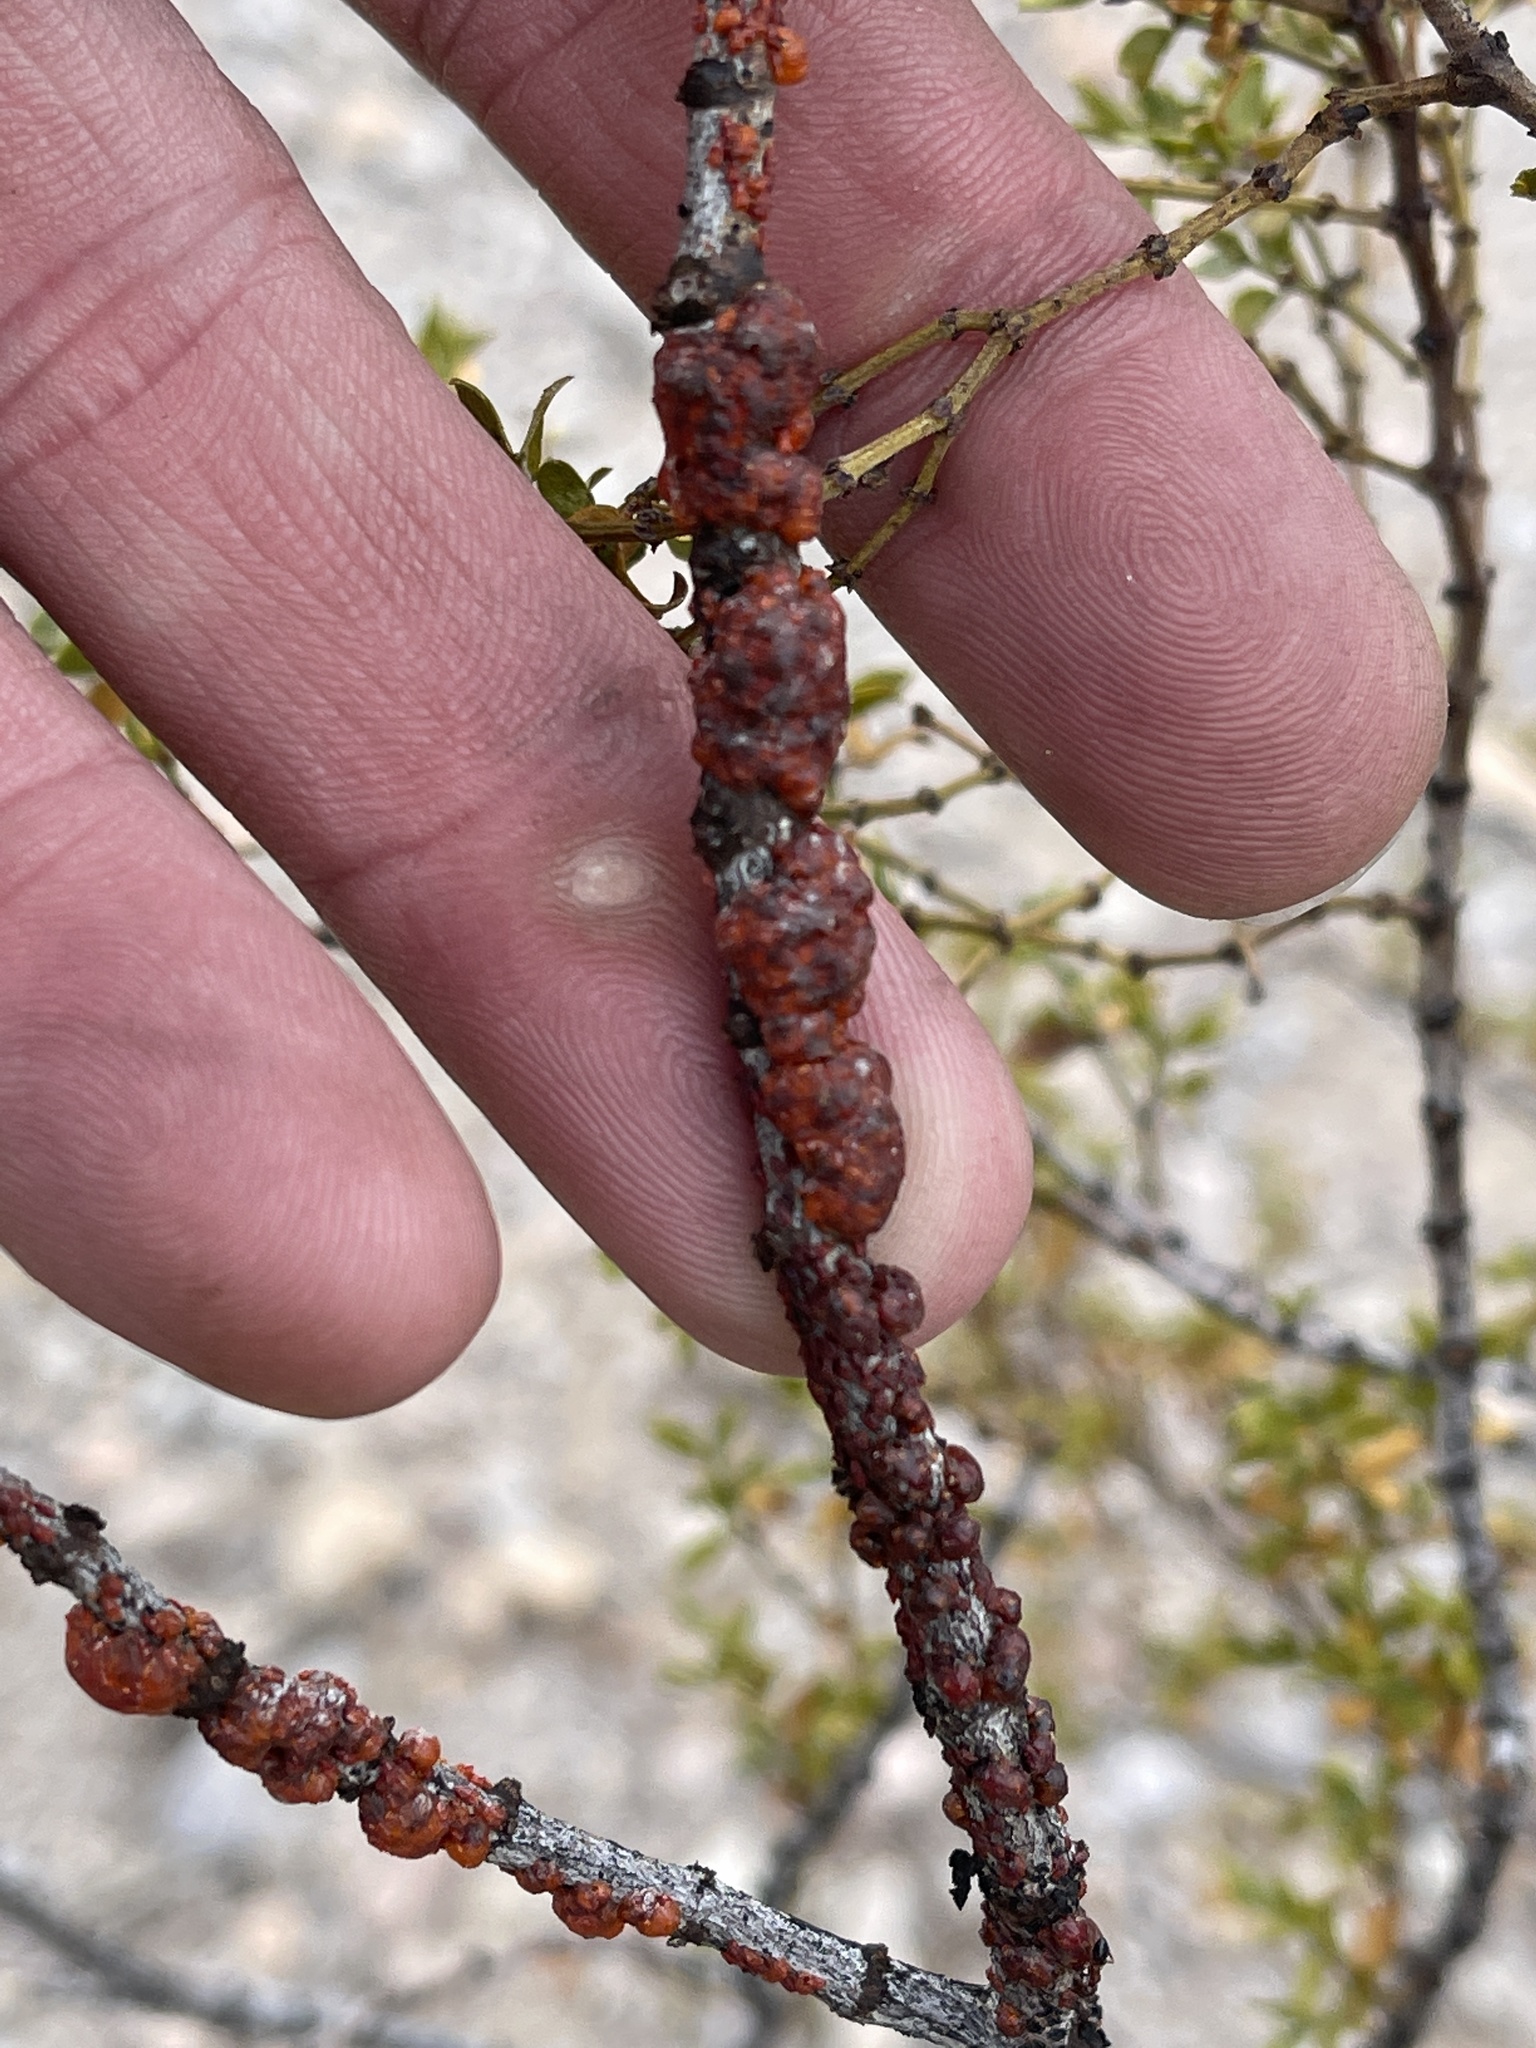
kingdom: Animalia
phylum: Arthropoda
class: Insecta
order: Hemiptera
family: Kerriidae
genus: Tachardiella
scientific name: Tachardiella larreae
